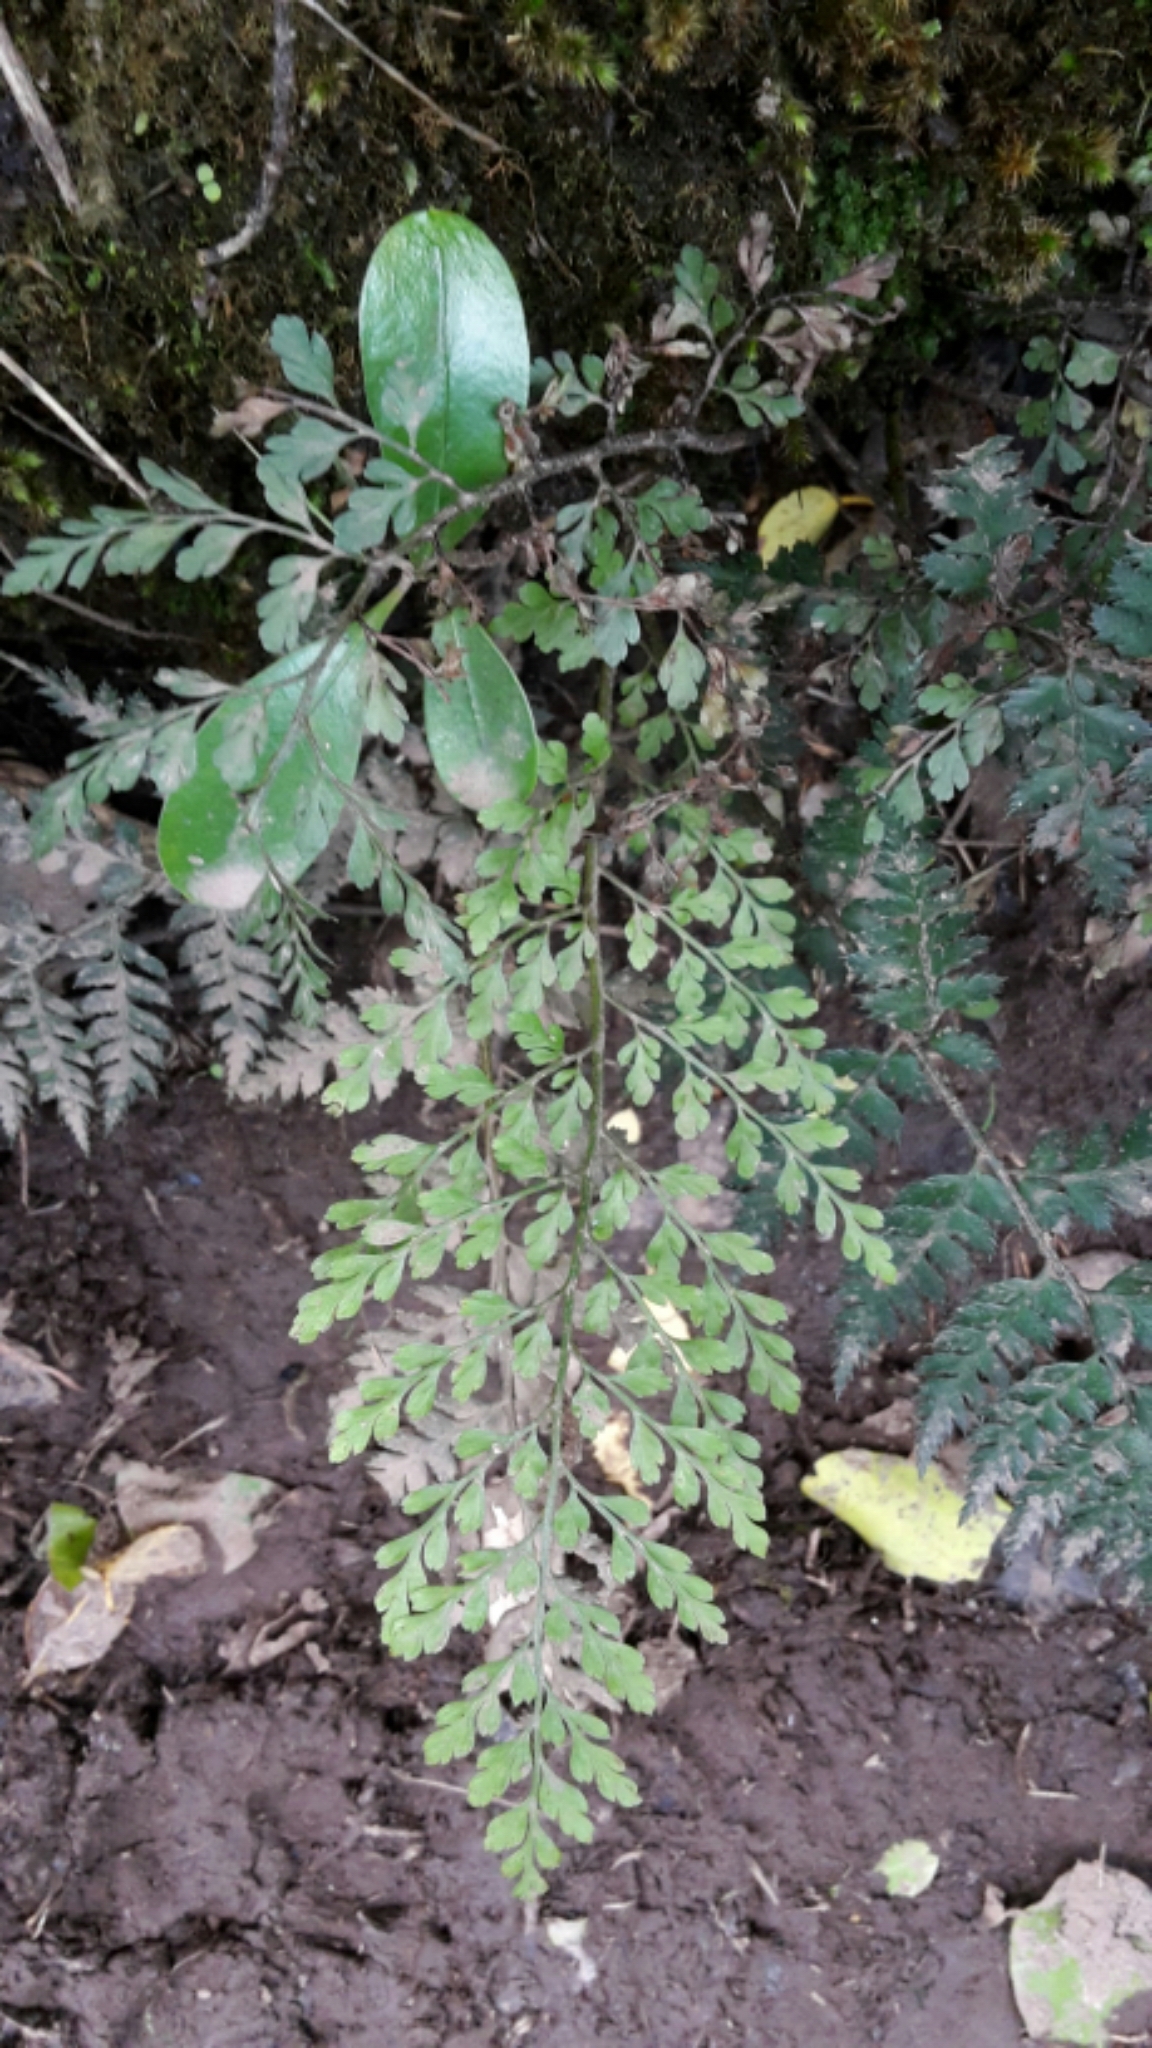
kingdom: Plantae
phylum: Tracheophyta
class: Polypodiopsida
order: Polypodiales
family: Aspleniaceae
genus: Asplenium
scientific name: Asplenium hookerianum
